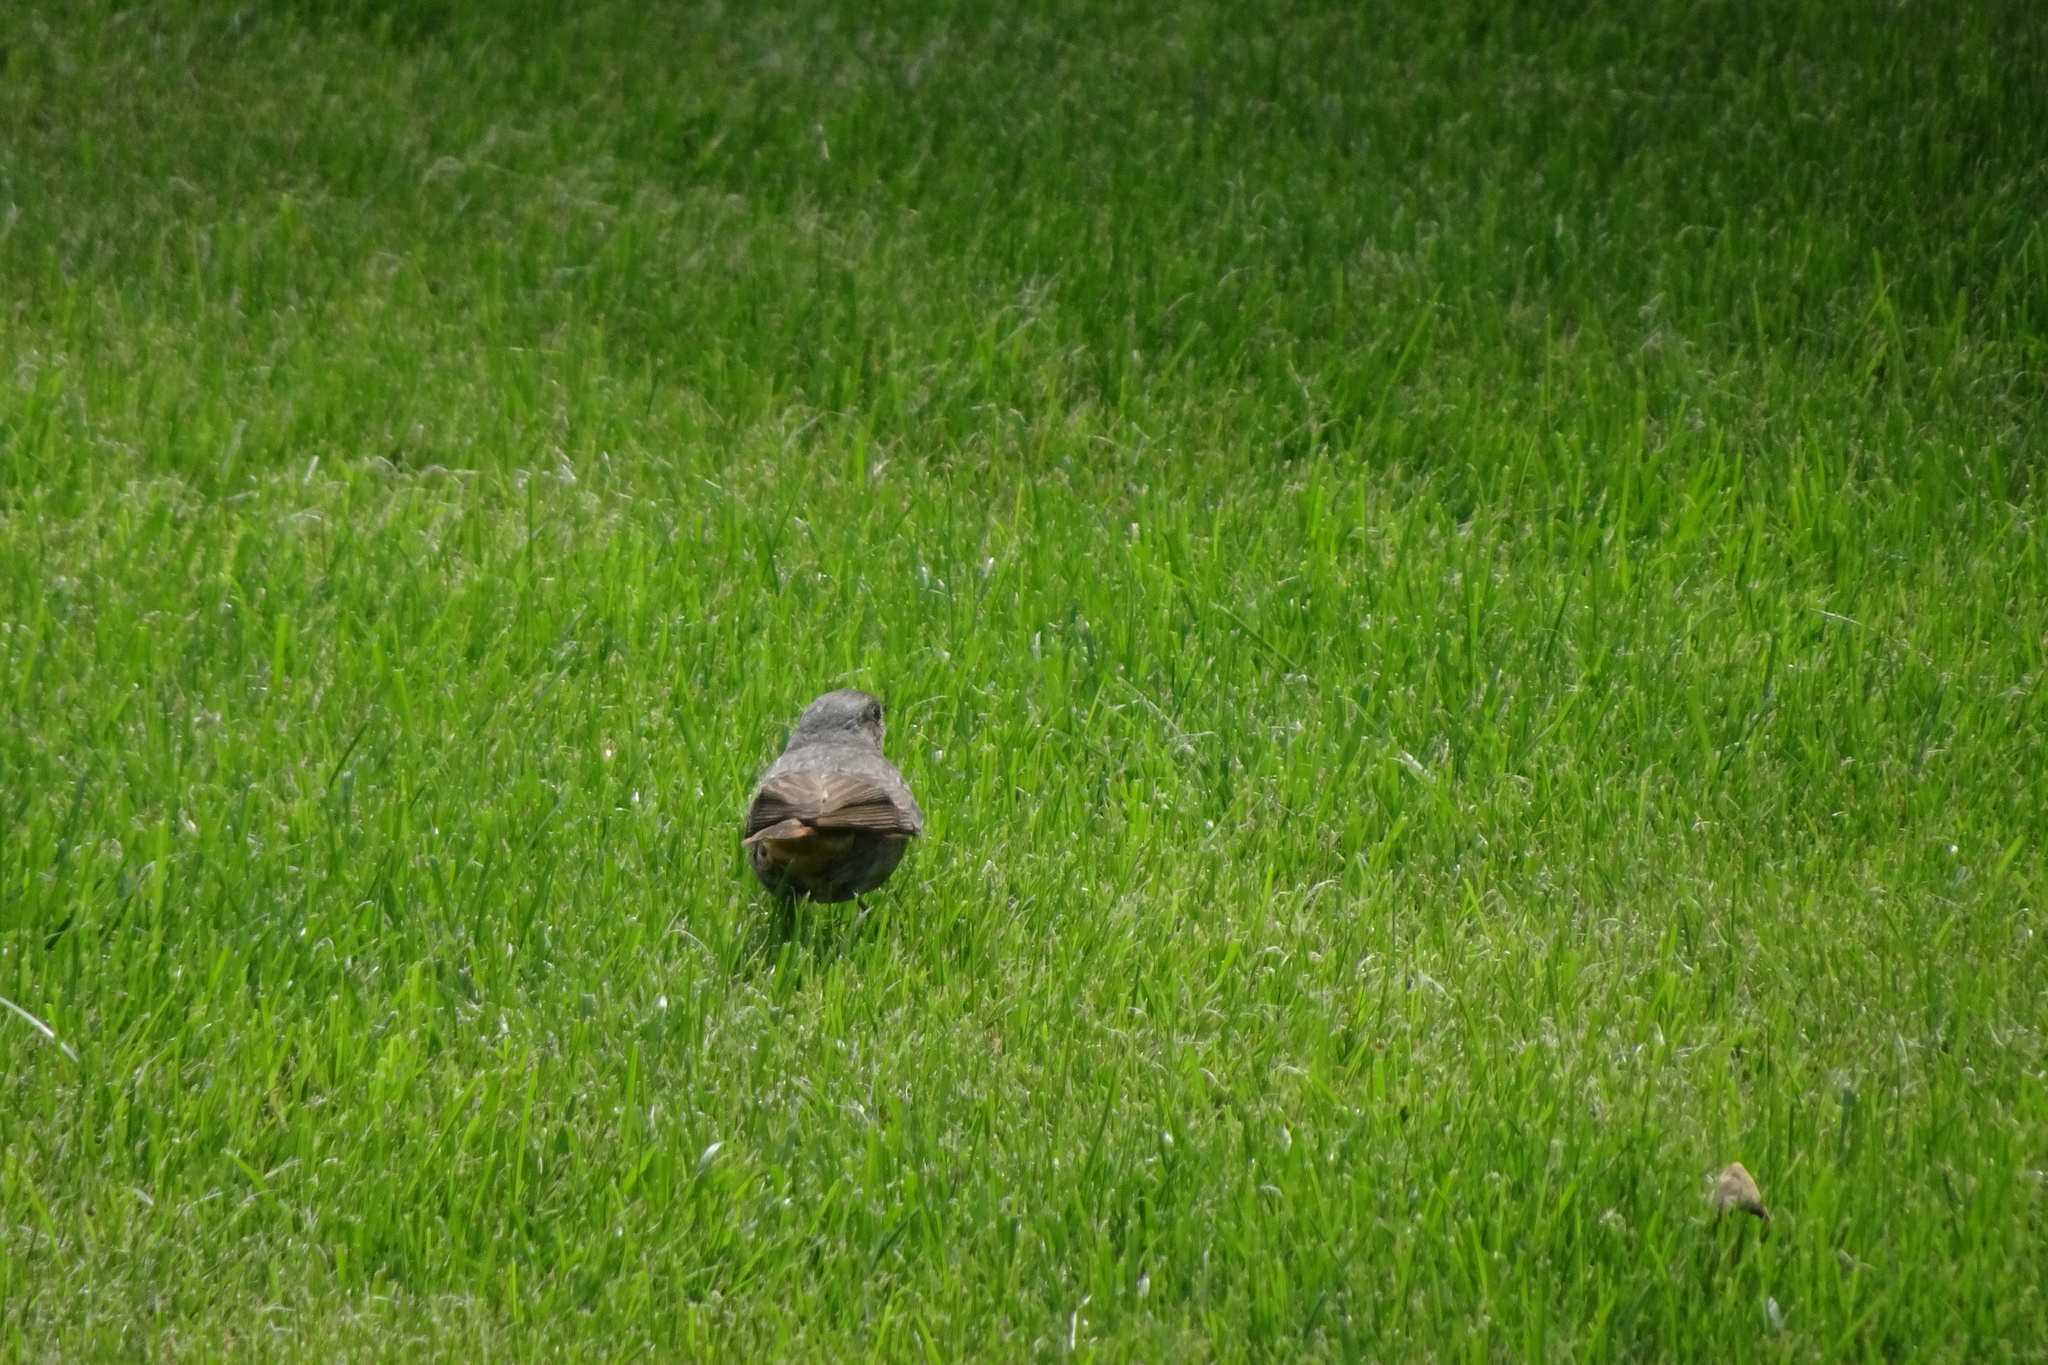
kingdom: Animalia
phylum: Chordata
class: Aves
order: Passeriformes
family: Muscicapidae
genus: Phoenicurus
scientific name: Phoenicurus ochruros
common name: Black redstart
